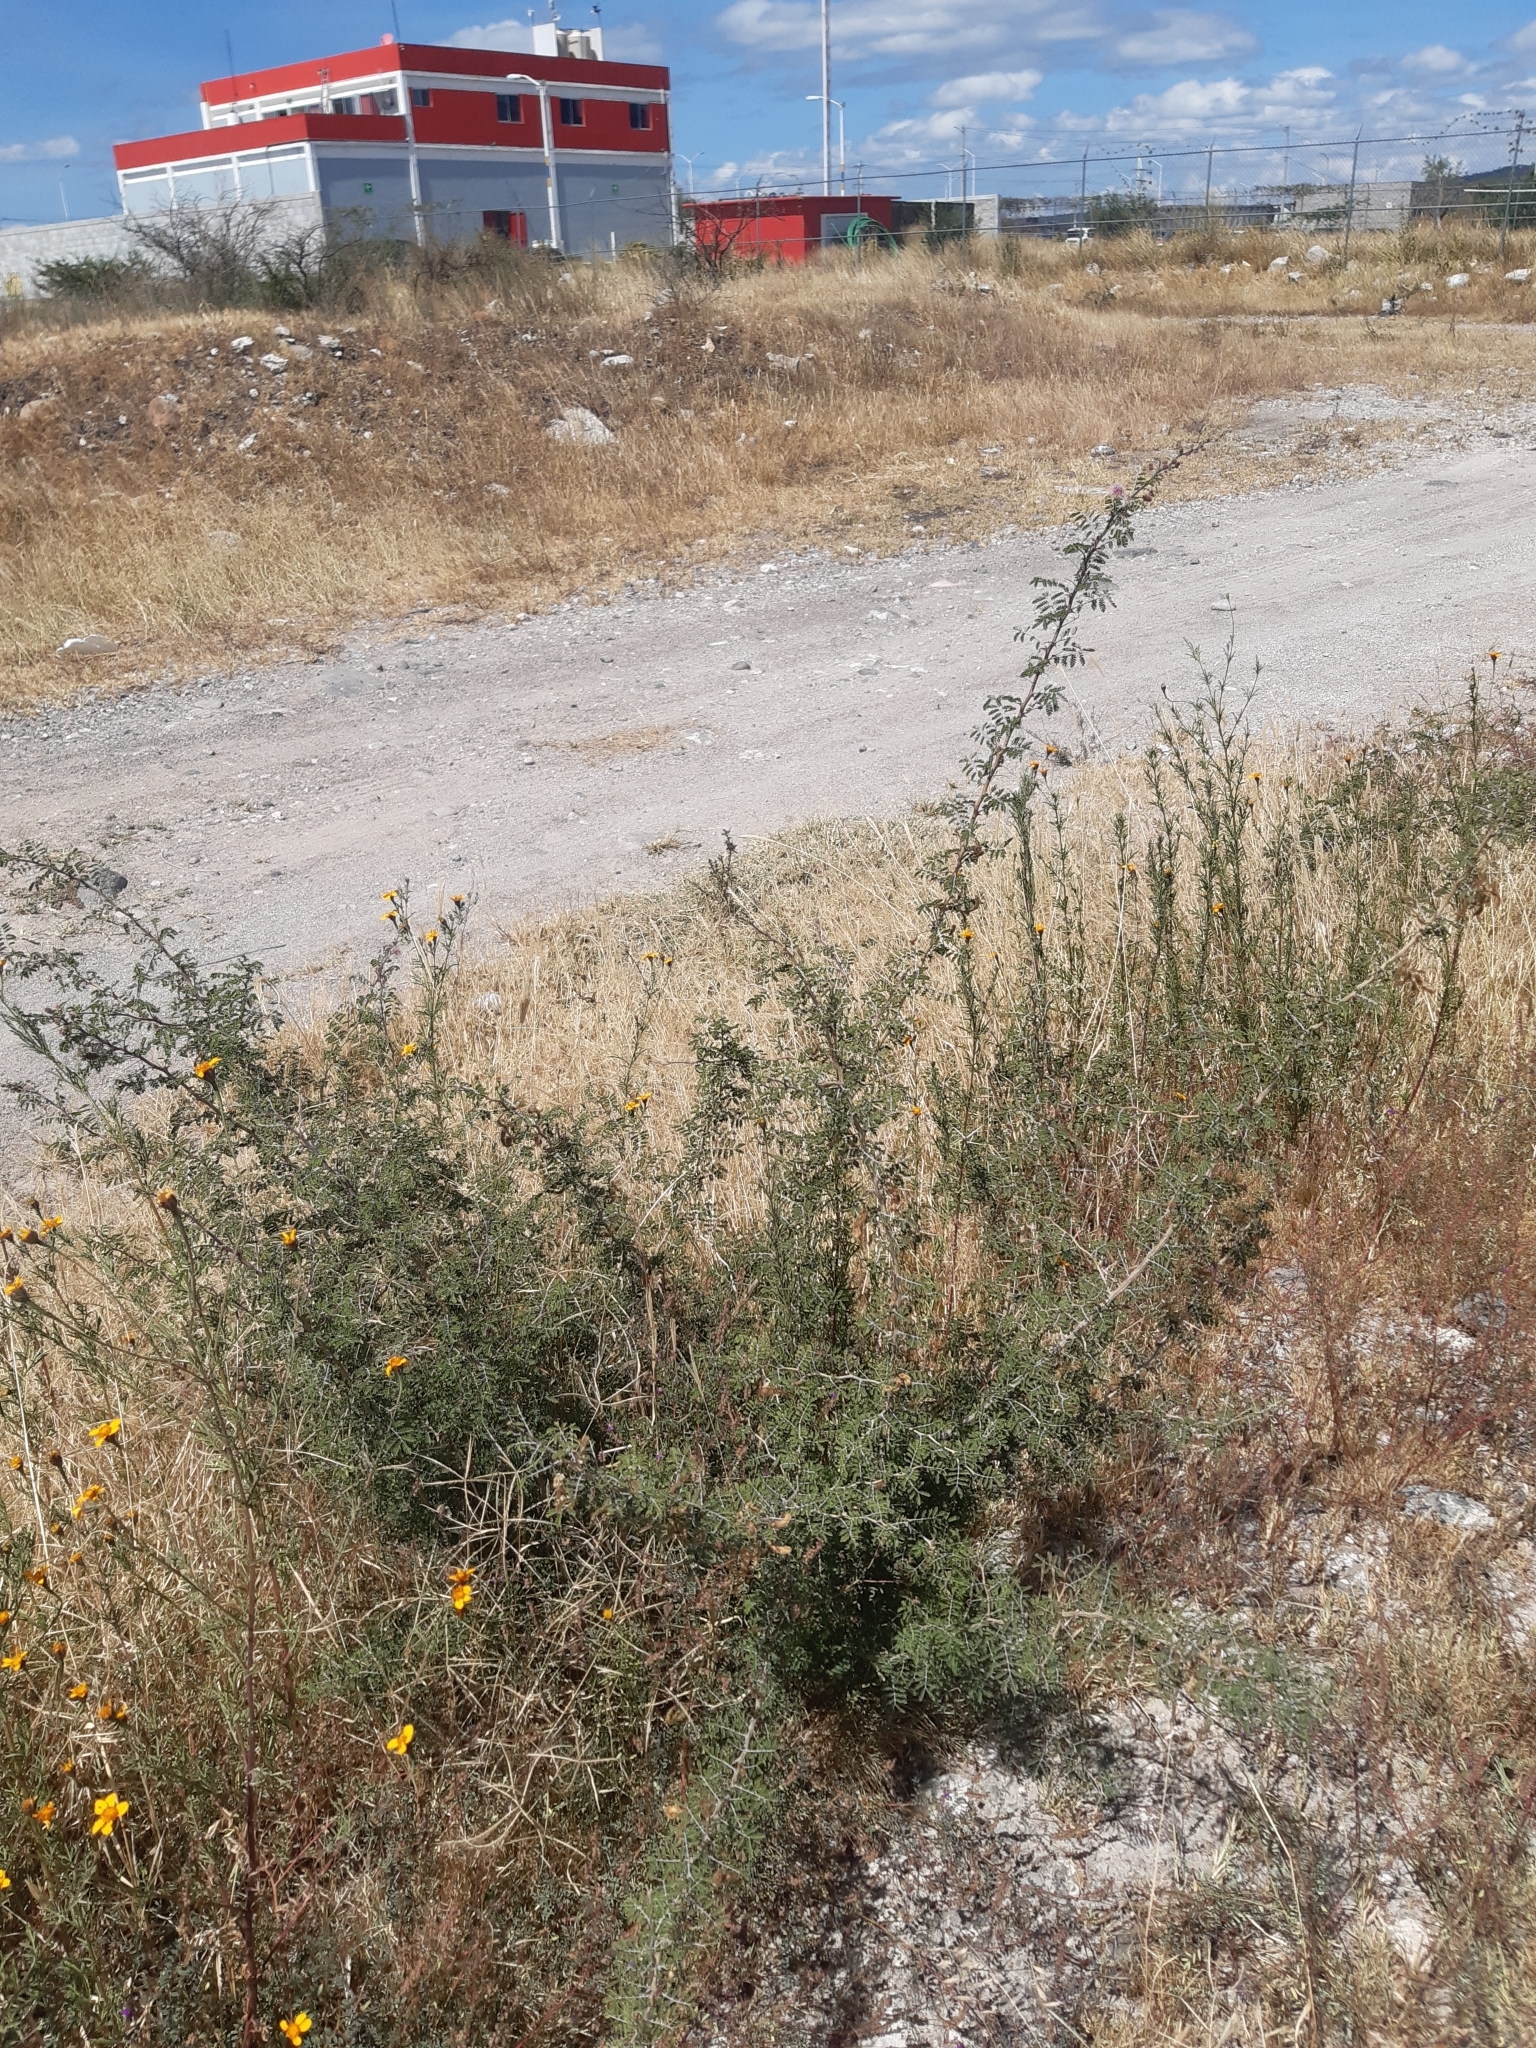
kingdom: Plantae
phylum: Tracheophyta
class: Magnoliopsida
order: Fabales
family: Fabaceae
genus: Mimosa
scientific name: Mimosa aculeaticarpa
